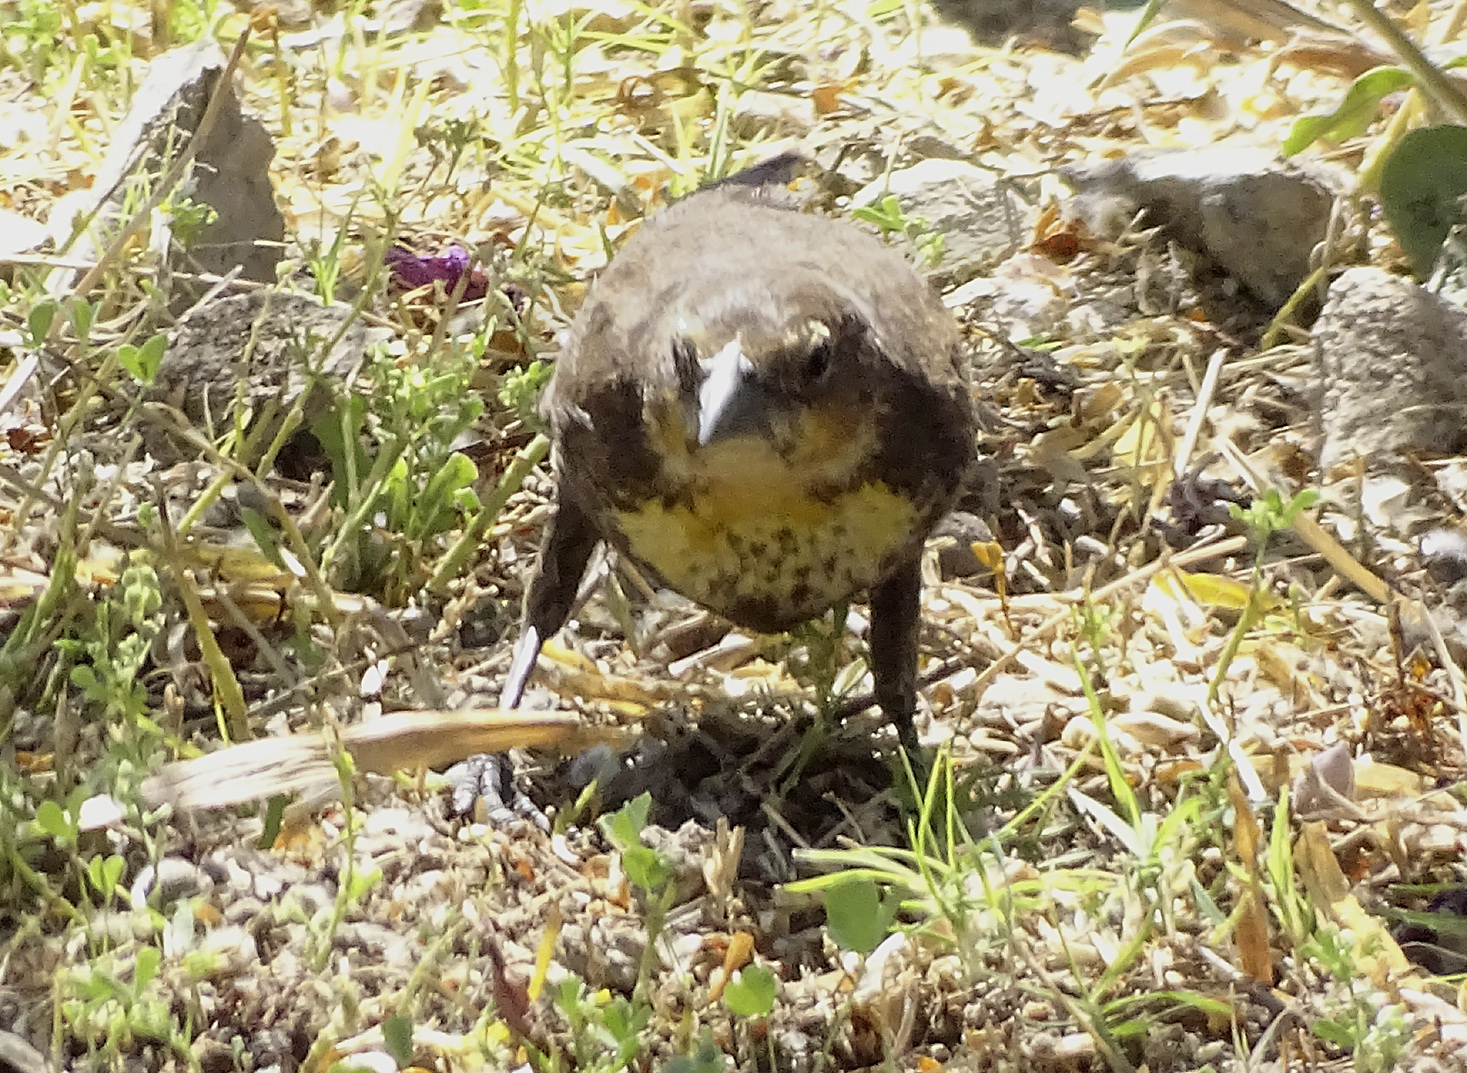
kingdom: Animalia
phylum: Chordata
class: Aves
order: Passeriformes
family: Icteridae
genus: Xanthocephalus
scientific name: Xanthocephalus xanthocephalus
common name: Yellow-headed blackbird
